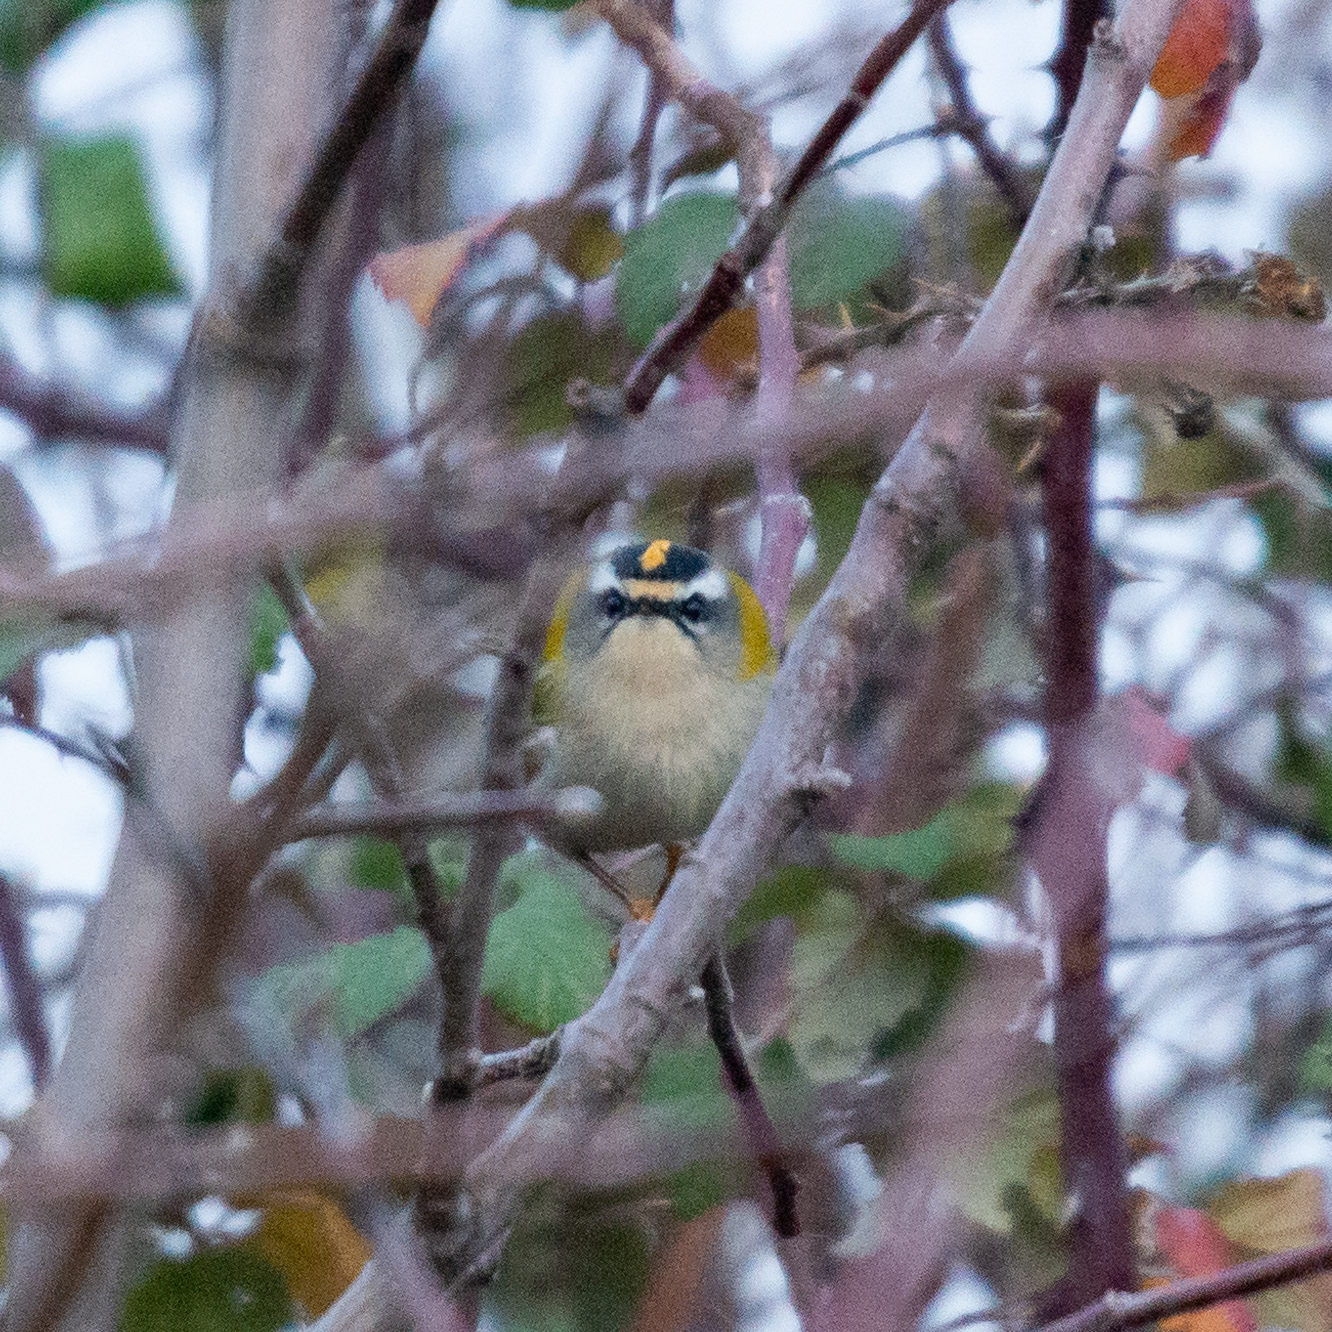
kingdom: Animalia
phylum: Chordata
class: Aves
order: Passeriformes
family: Regulidae
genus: Regulus
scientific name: Regulus ignicapilla
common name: Firecrest
